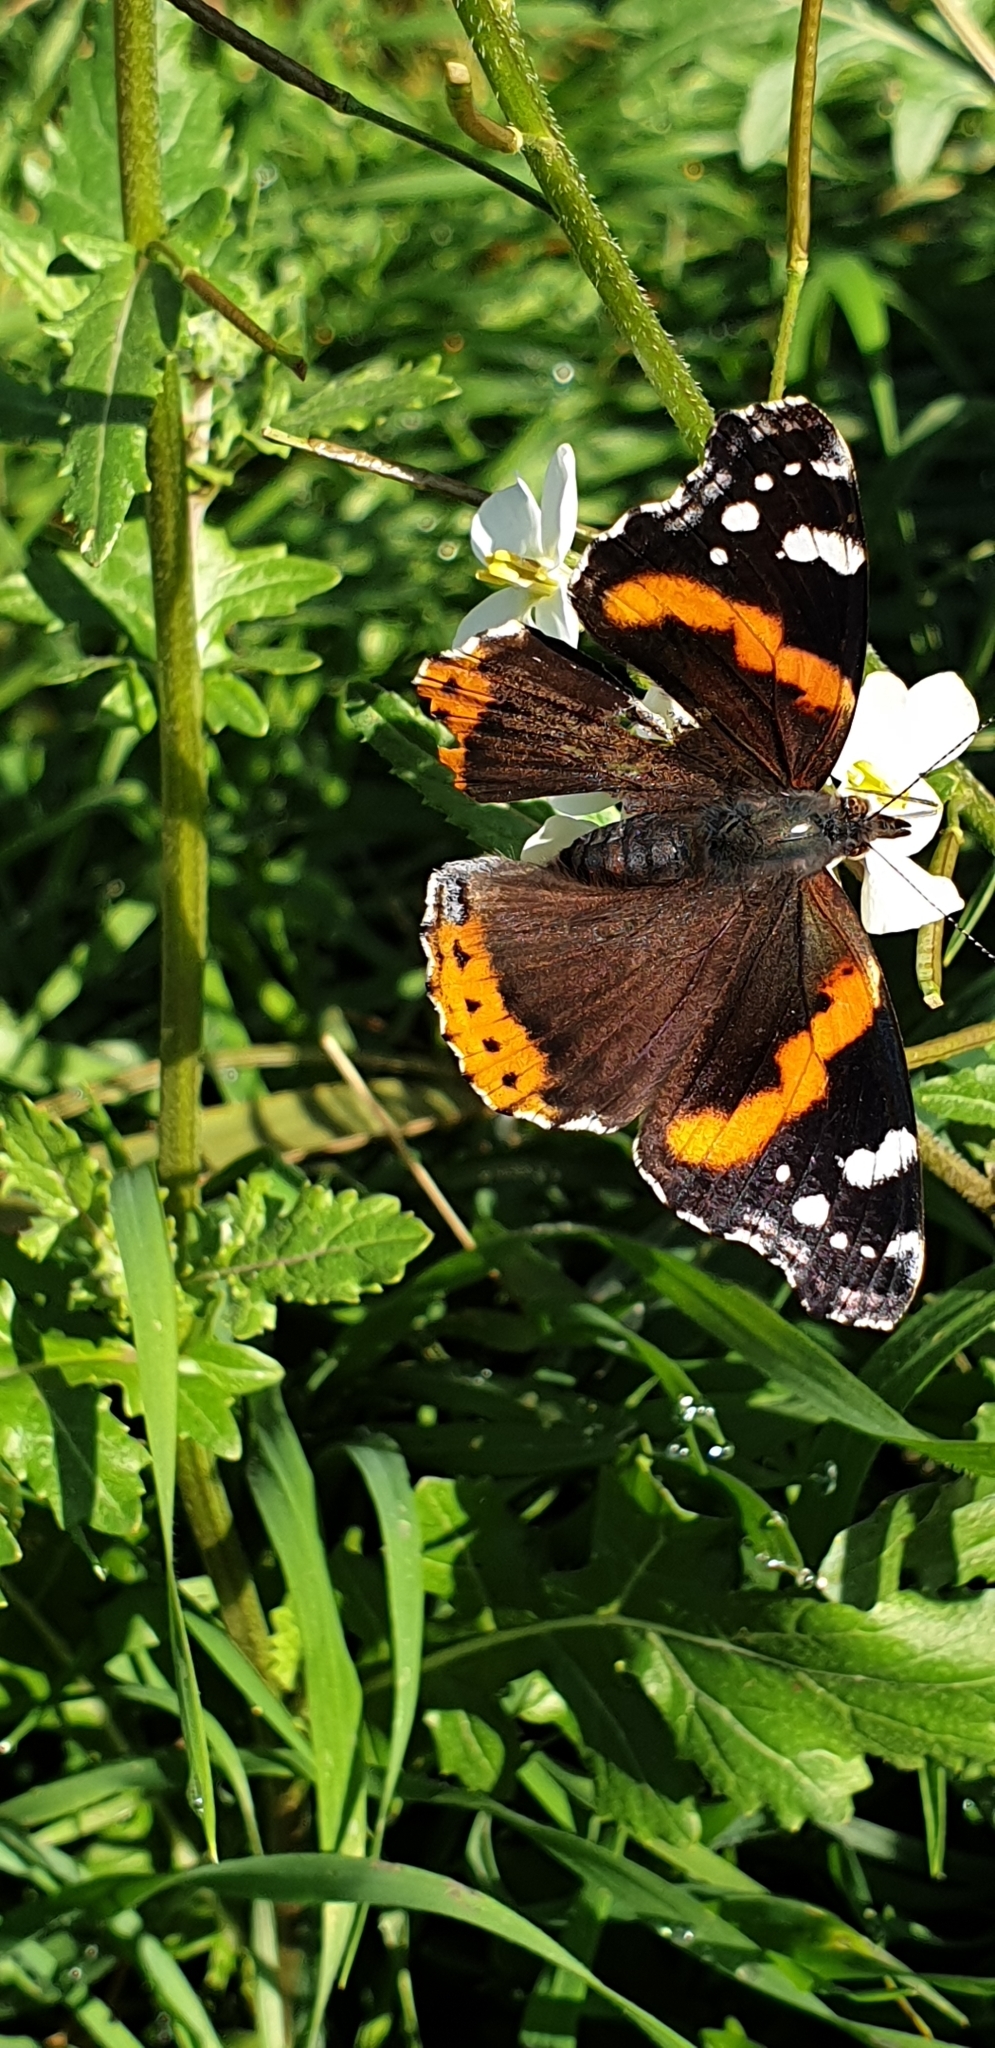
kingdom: Animalia
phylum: Arthropoda
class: Insecta
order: Lepidoptera
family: Nymphalidae
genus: Vanessa
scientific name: Vanessa atalanta
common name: Red admiral
